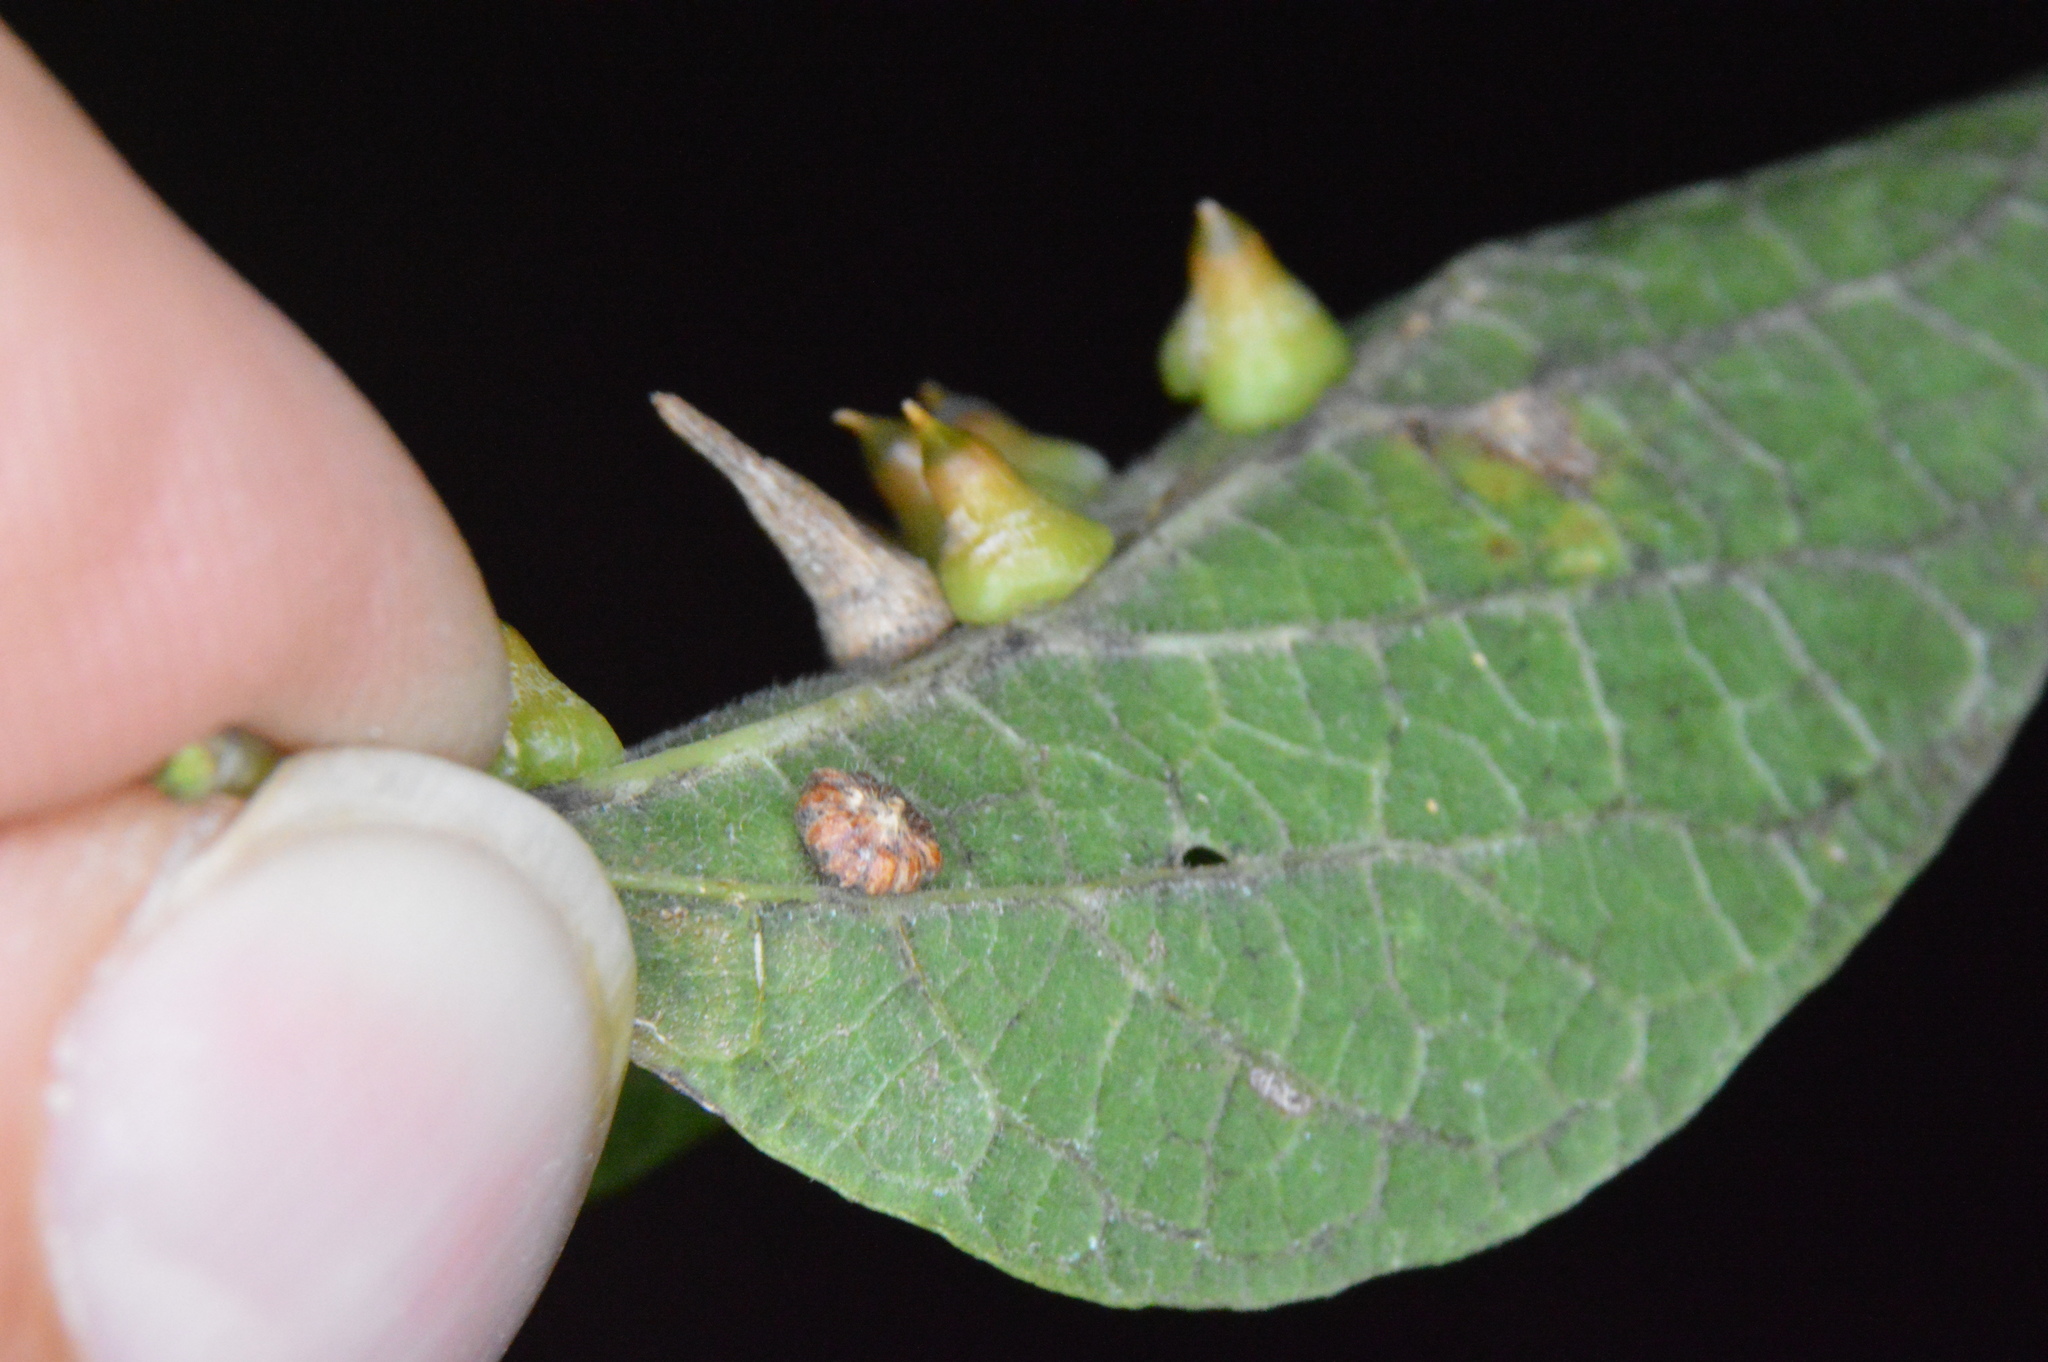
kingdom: Animalia
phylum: Arthropoda
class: Insecta
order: Diptera
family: Cecidomyiidae
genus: Celticecis
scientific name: Celticecis capsularis
